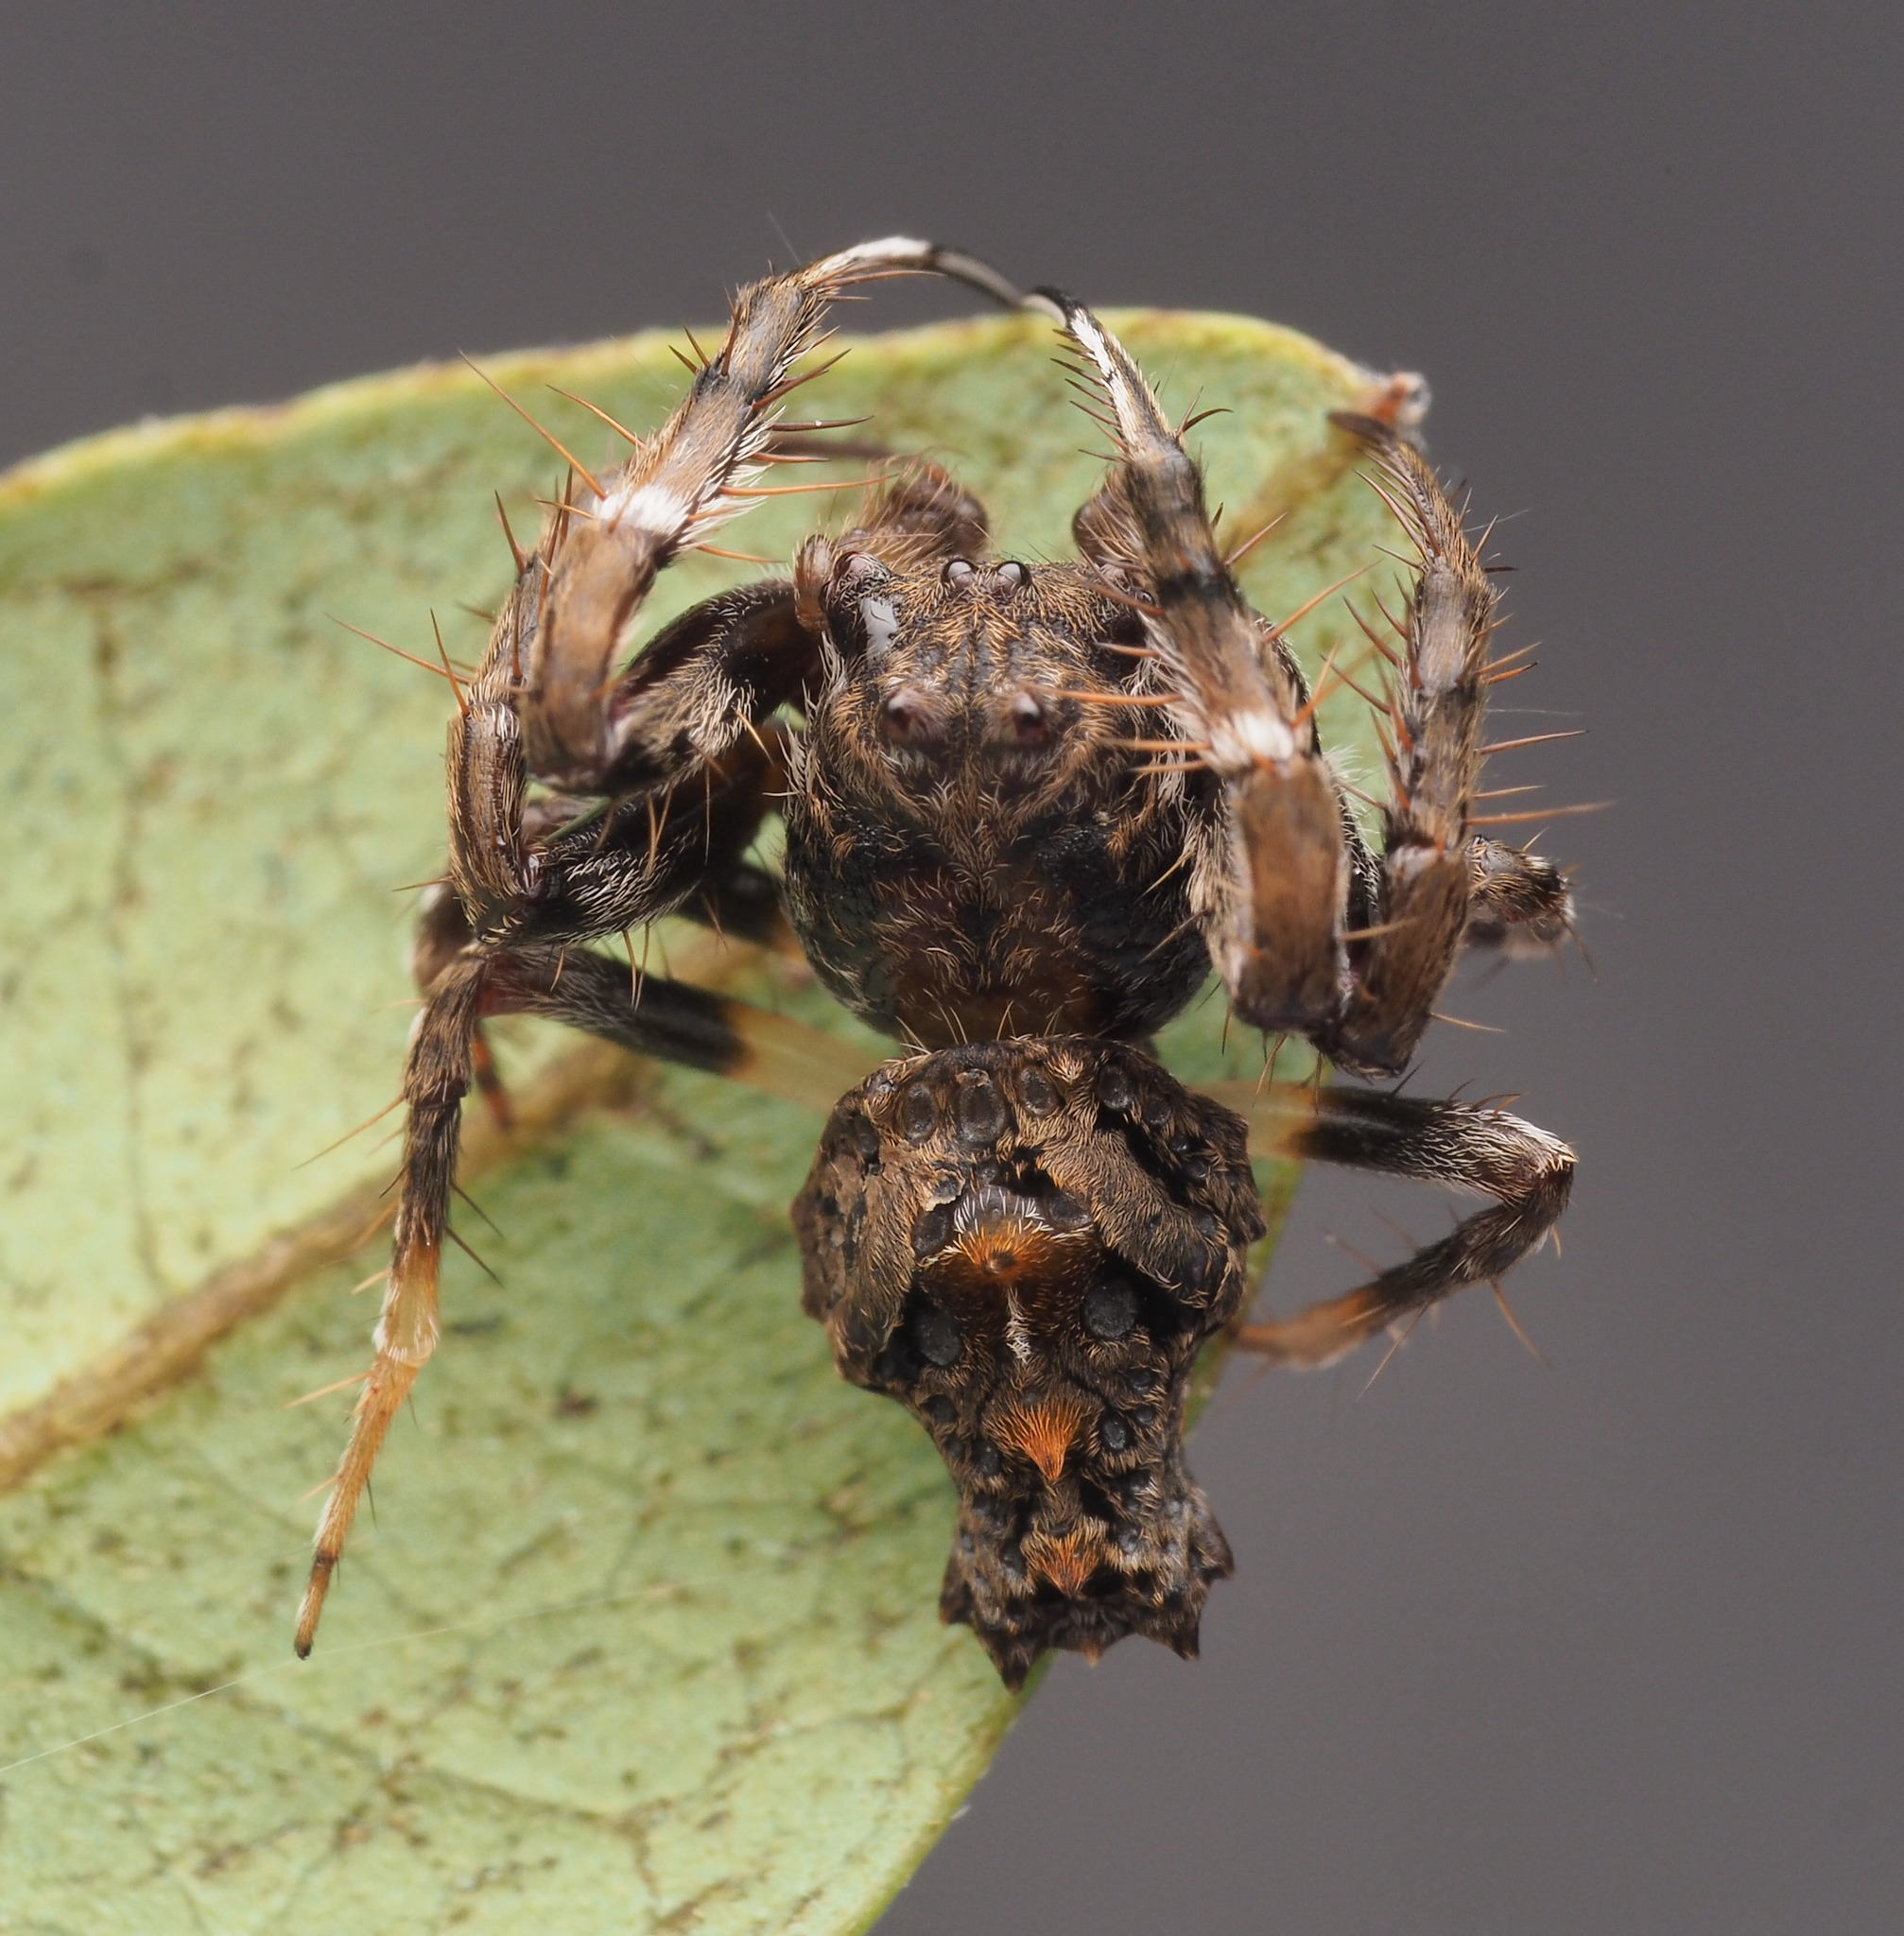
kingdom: Animalia
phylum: Arthropoda
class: Arachnida
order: Araneae
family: Arkyidae
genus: Arkys
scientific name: Arkys
